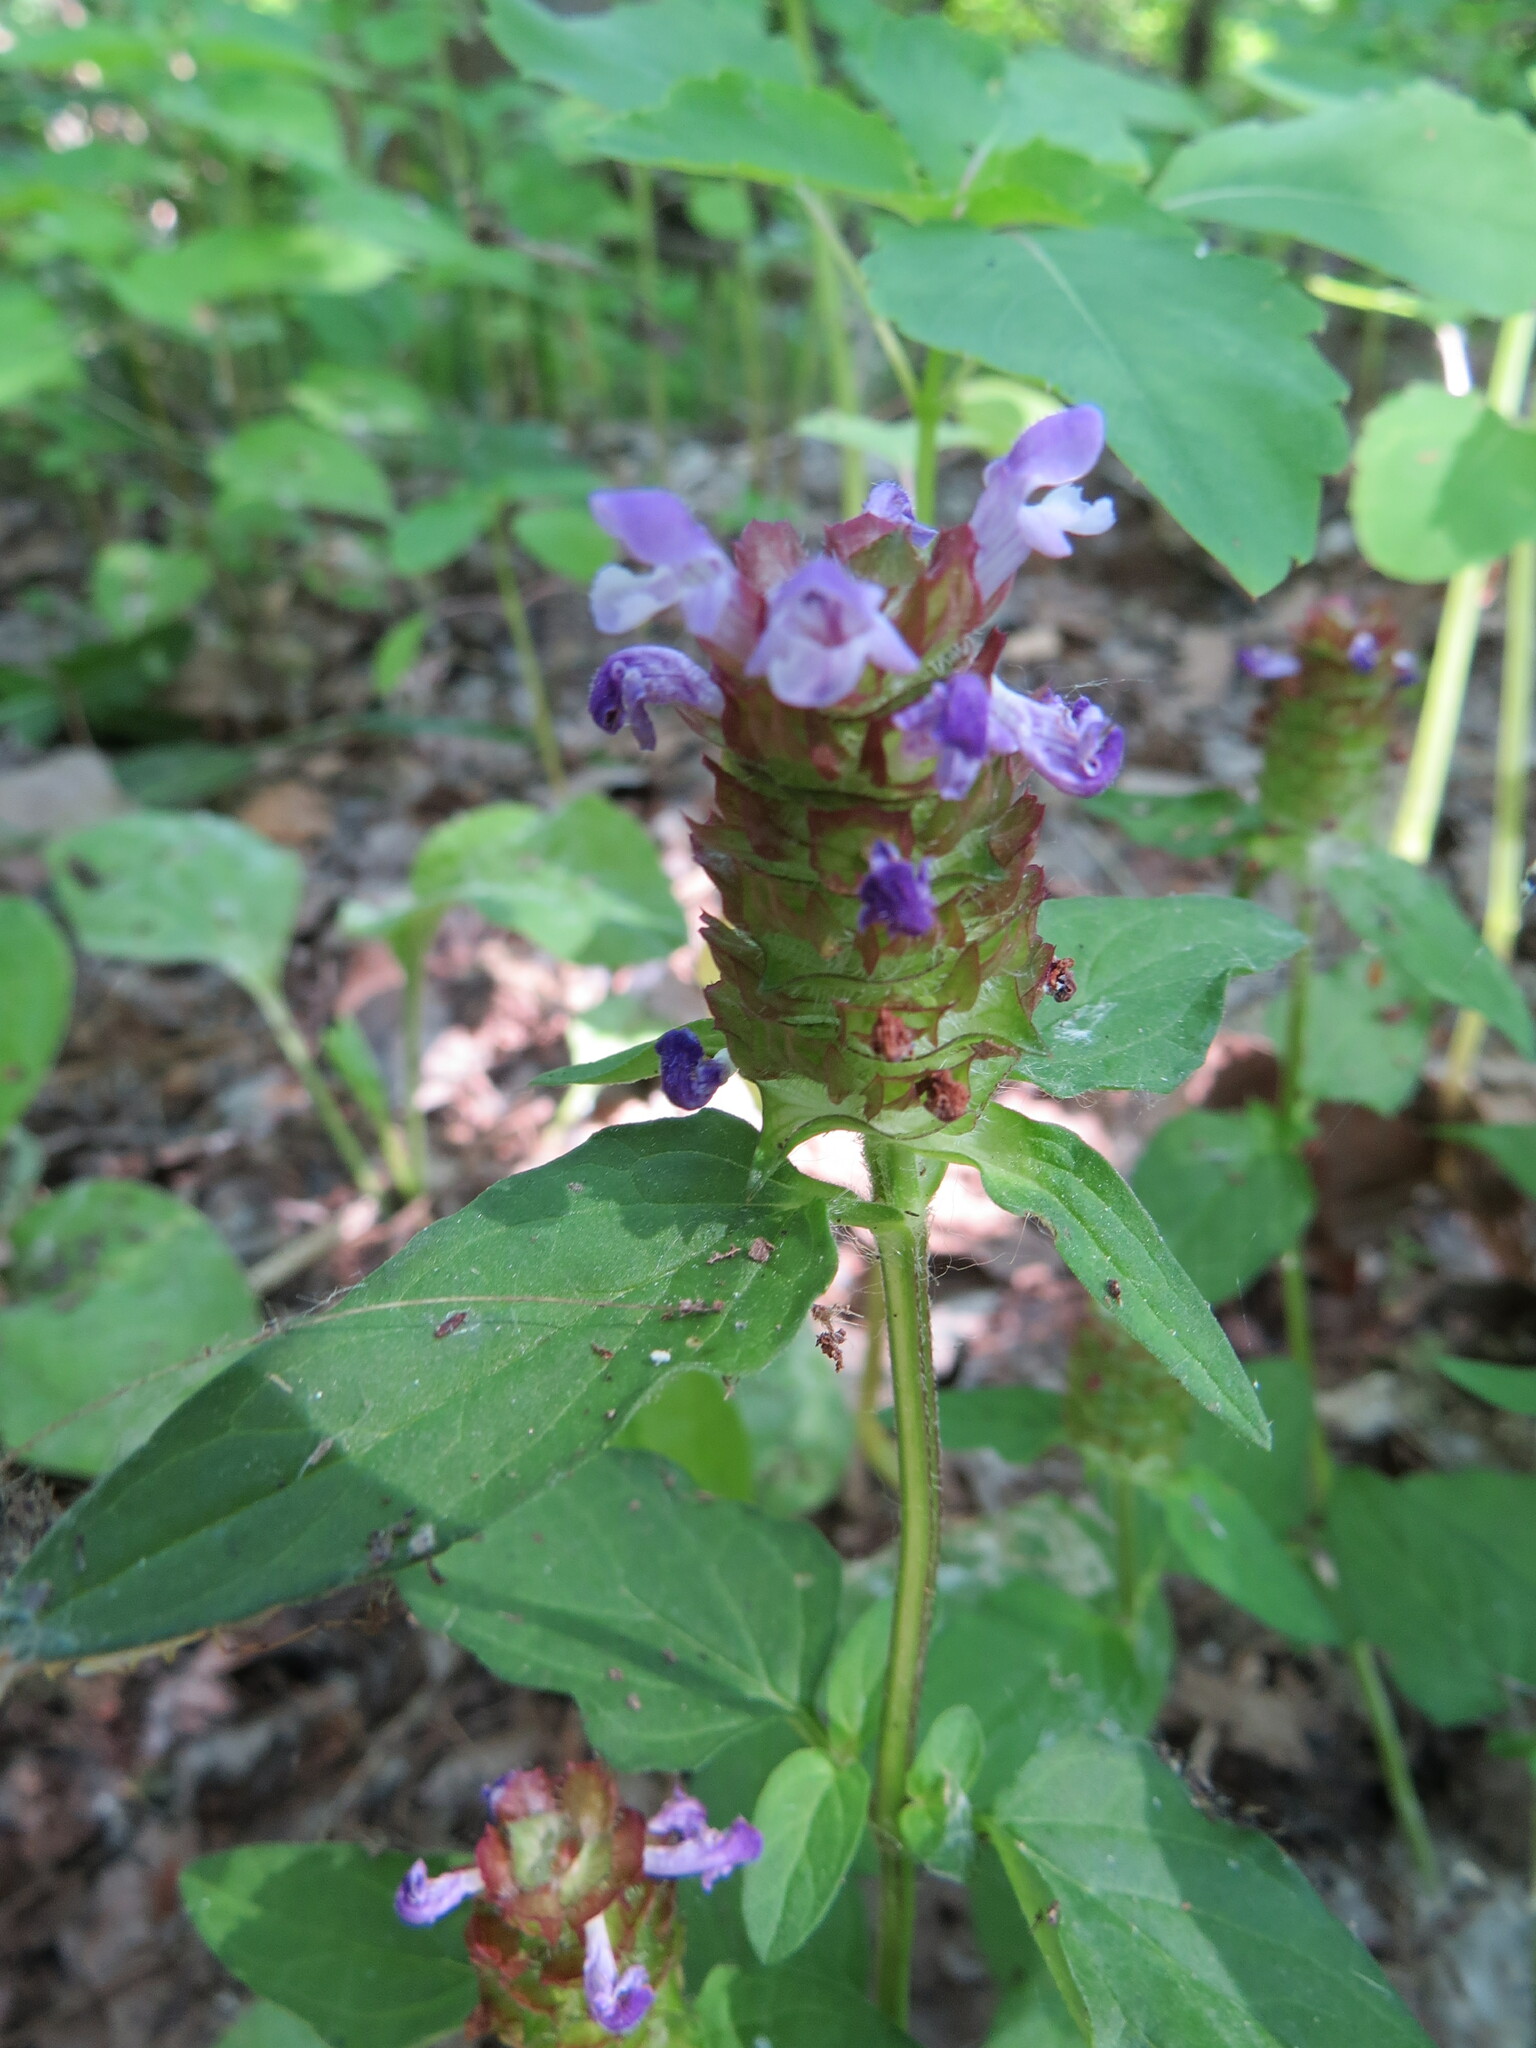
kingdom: Plantae
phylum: Tracheophyta
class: Magnoliopsida
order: Lamiales
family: Lamiaceae
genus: Prunella
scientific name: Prunella vulgaris
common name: Heal-all
